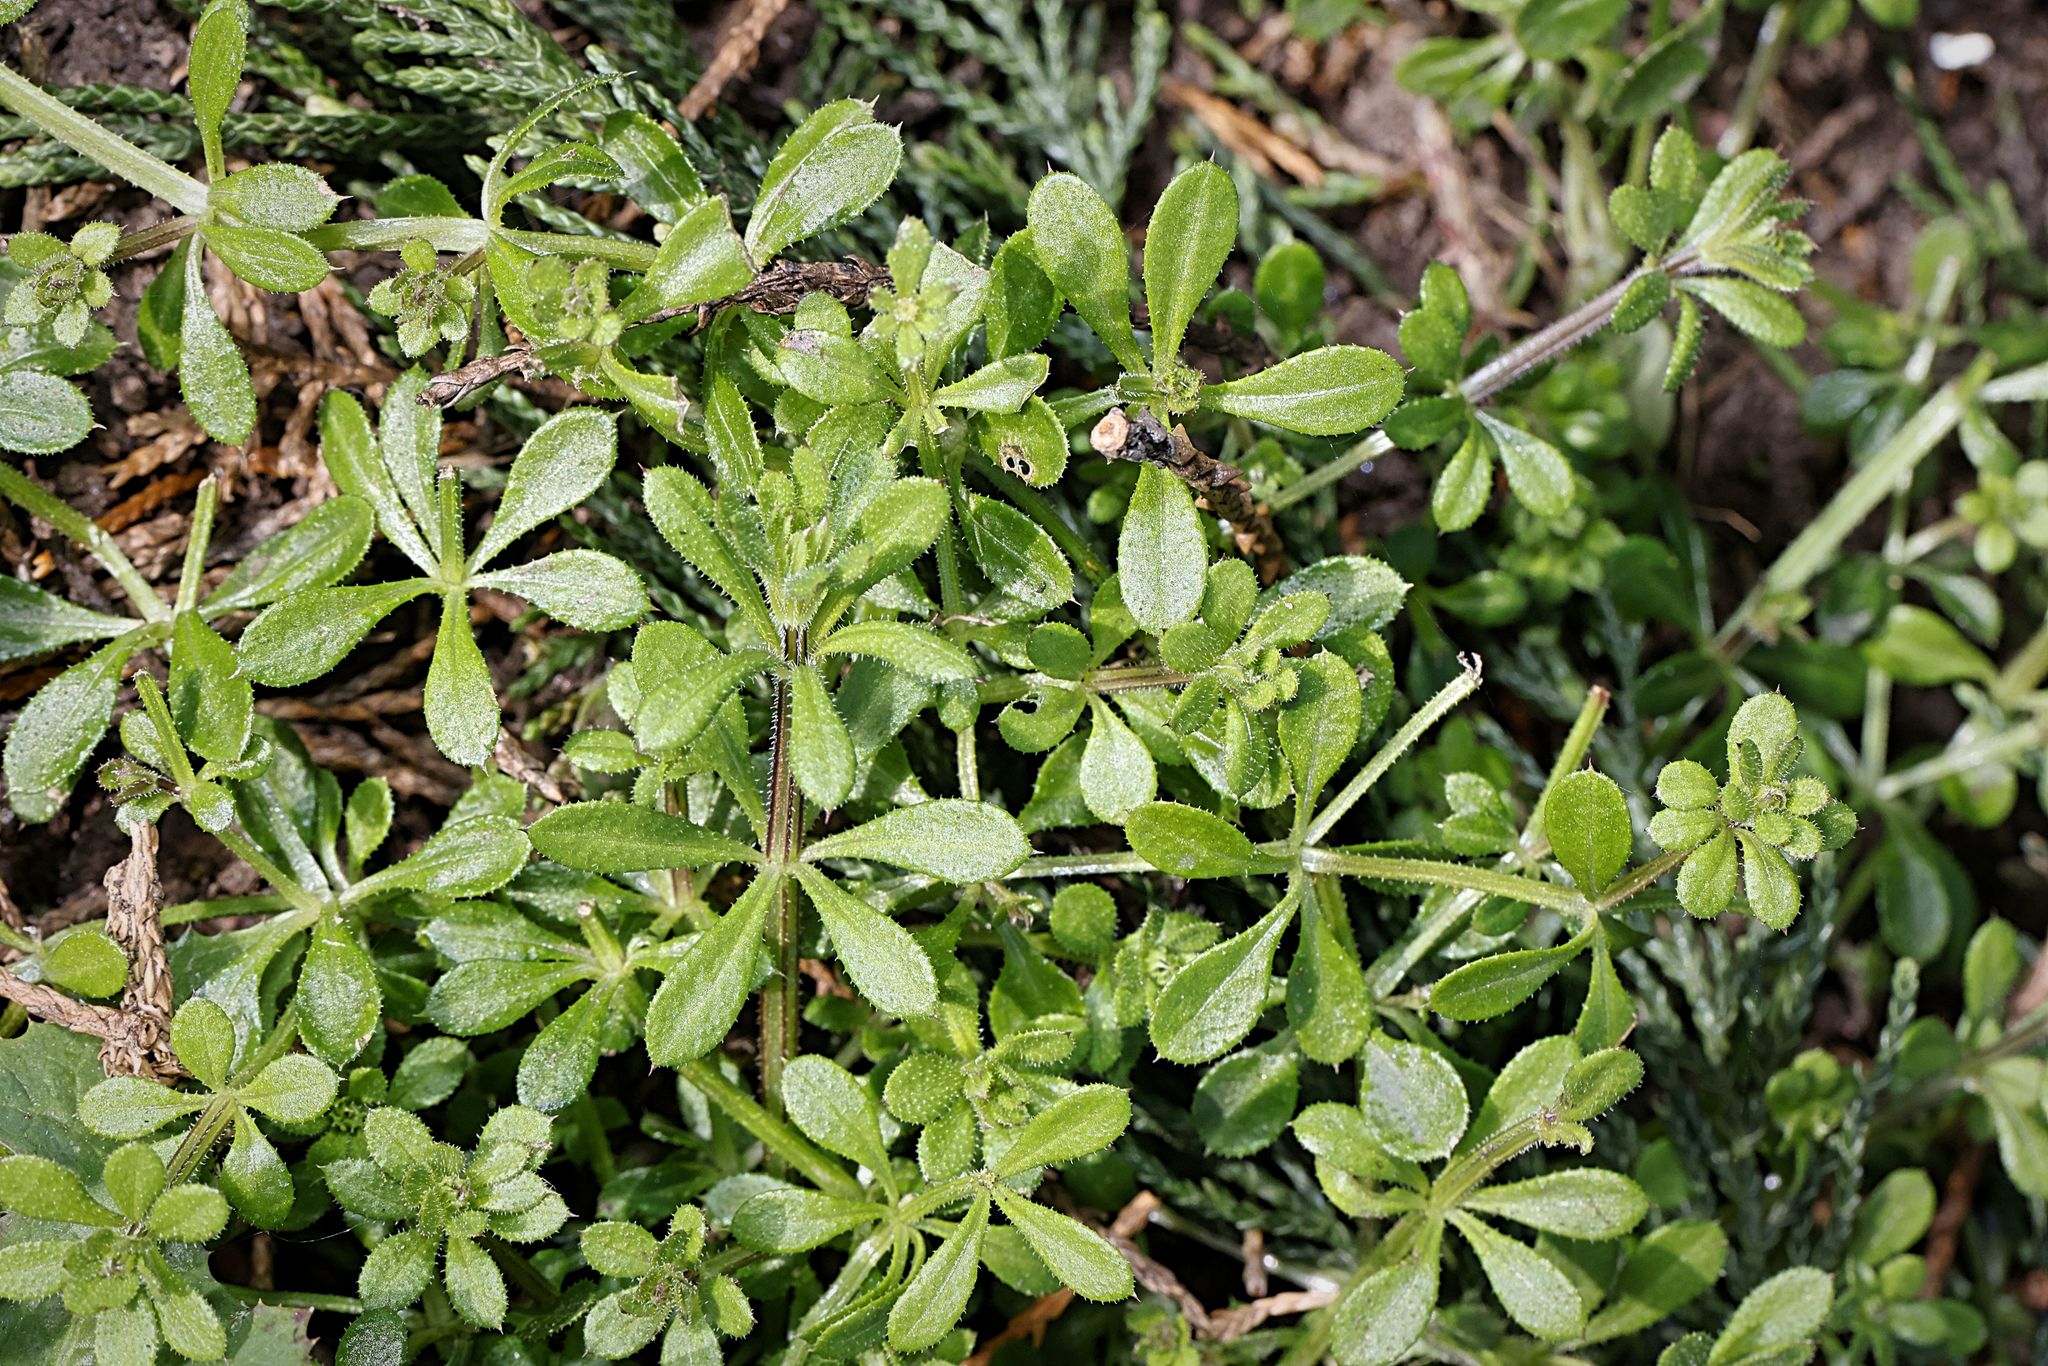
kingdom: Plantae
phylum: Tracheophyta
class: Magnoliopsida
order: Gentianales
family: Rubiaceae
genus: Galium
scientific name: Galium aparine
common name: Cleavers
